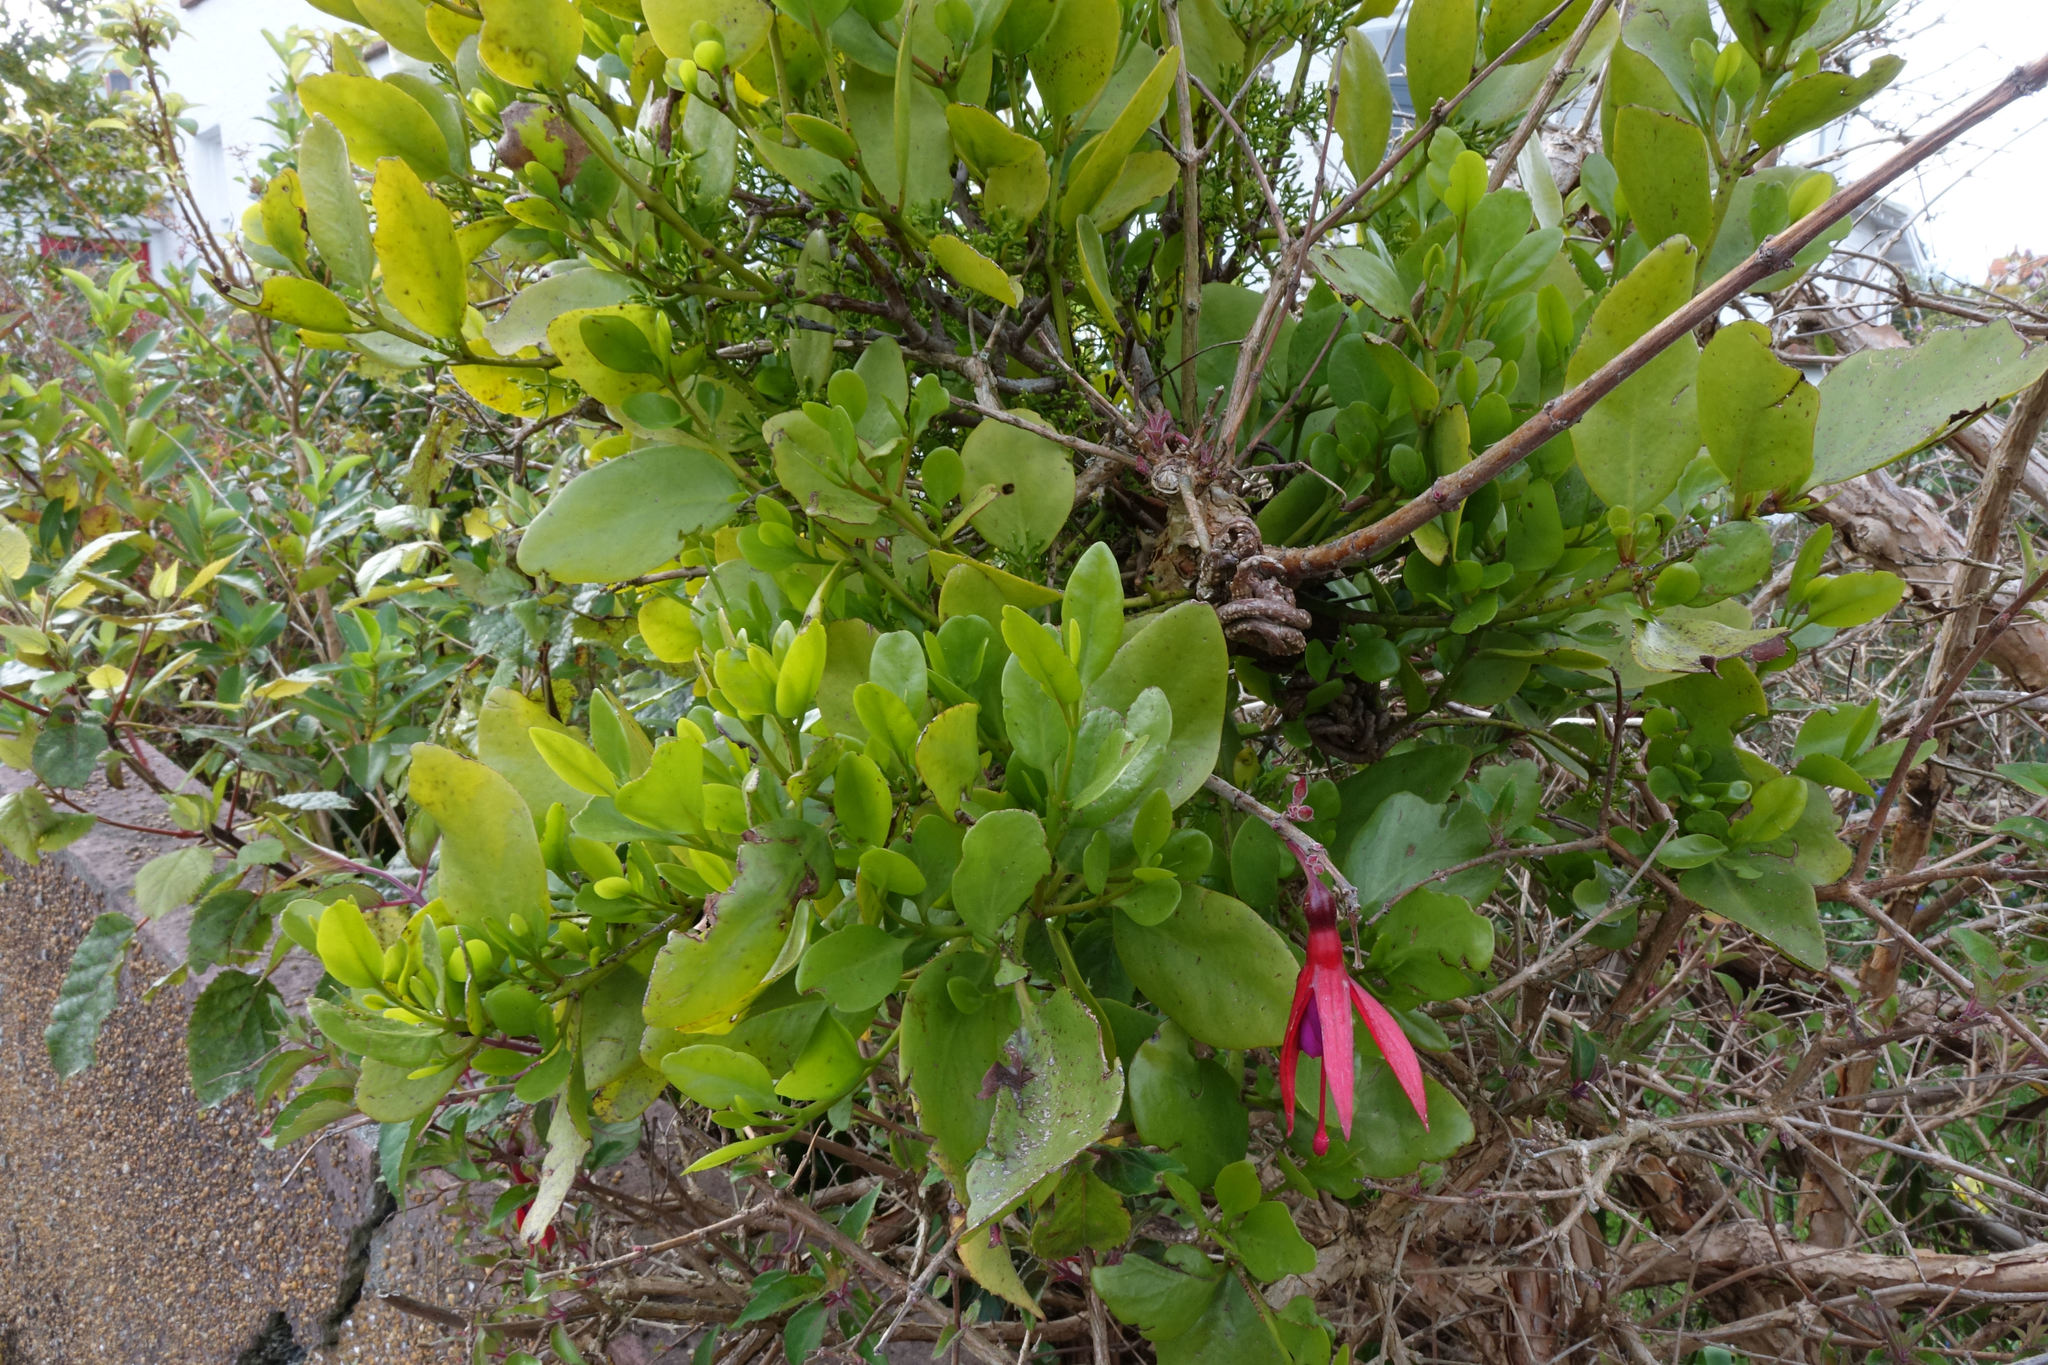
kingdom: Plantae
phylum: Tracheophyta
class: Magnoliopsida
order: Santalales
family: Loranthaceae
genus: Ileostylus
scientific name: Ileostylus micranthus
